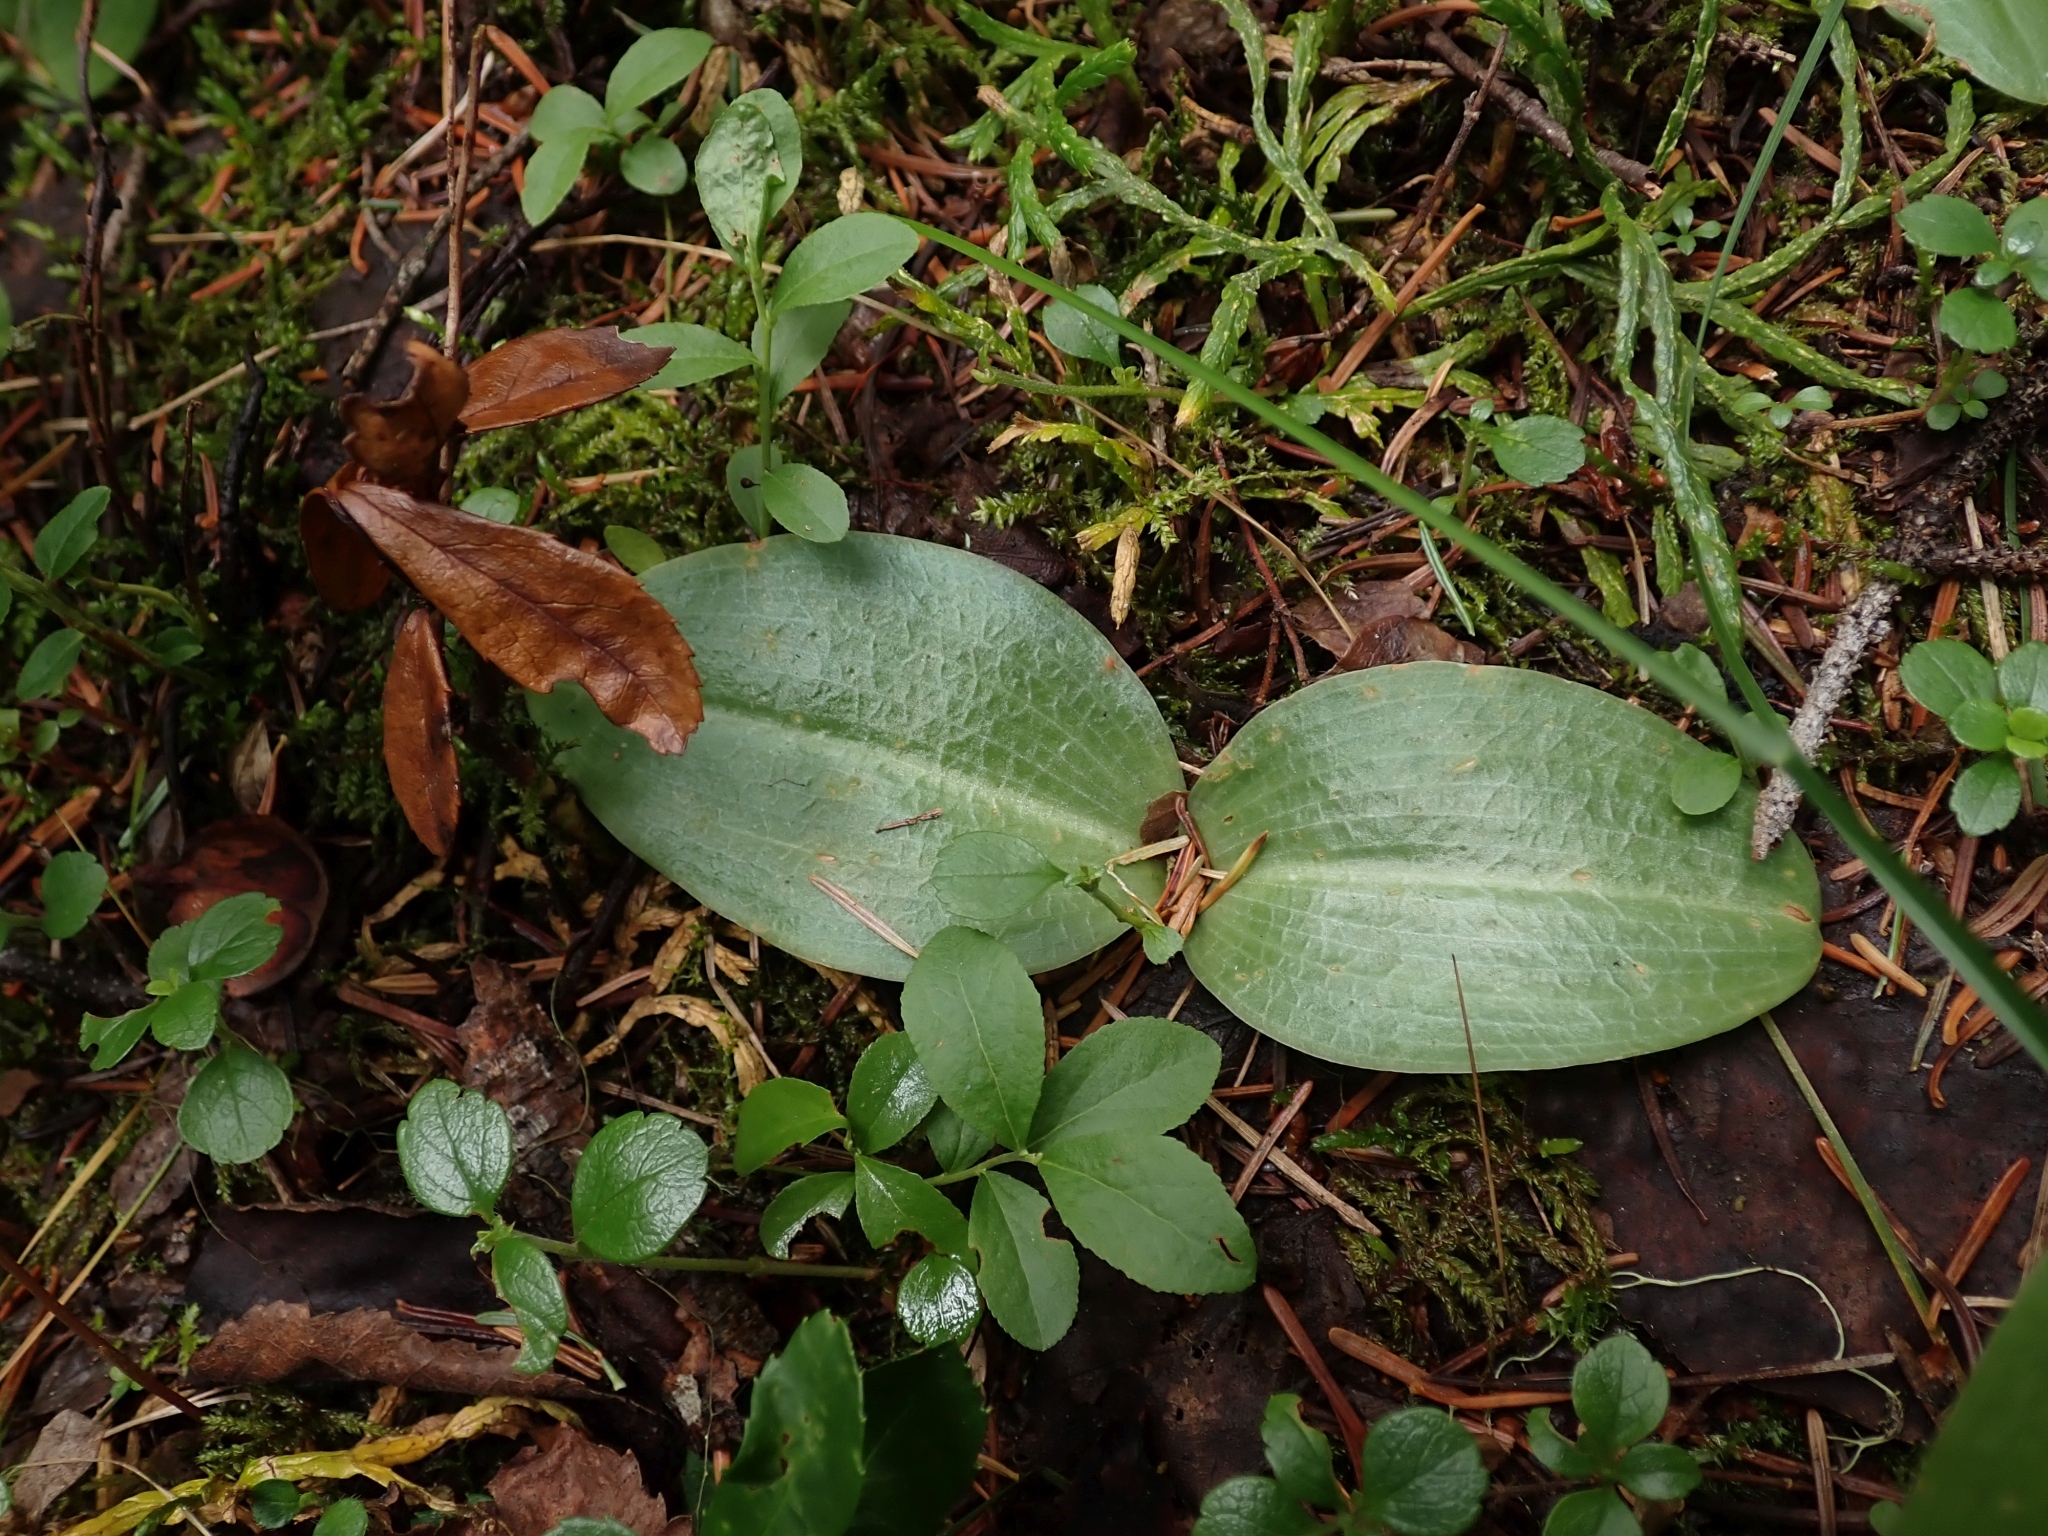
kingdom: Plantae
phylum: Tracheophyta
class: Liliopsida
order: Asparagales
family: Orchidaceae
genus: Platanthera
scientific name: Platanthera orbiculata
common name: Large round-leaved orchid
